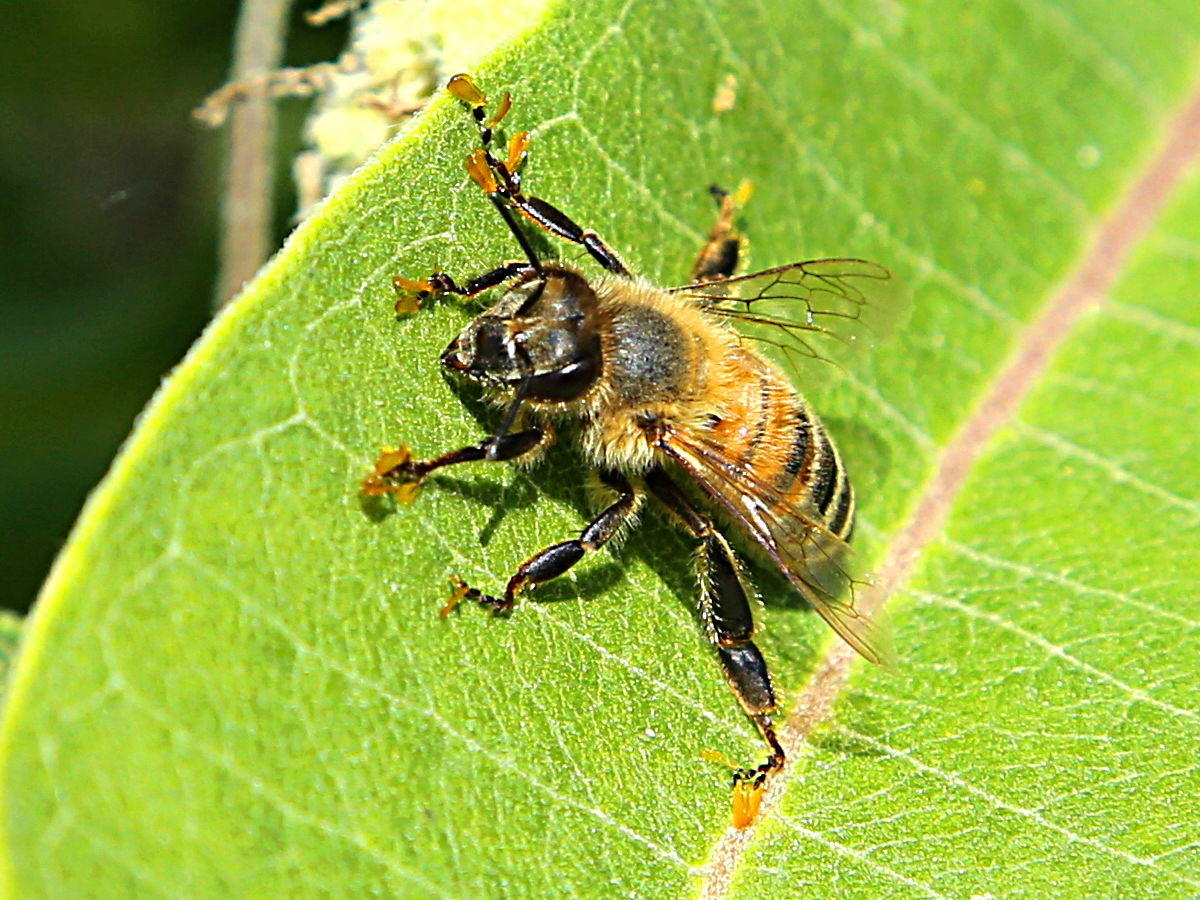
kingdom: Animalia
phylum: Arthropoda
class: Insecta
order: Hymenoptera
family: Apidae
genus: Apis
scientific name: Apis mellifera
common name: Honey bee
